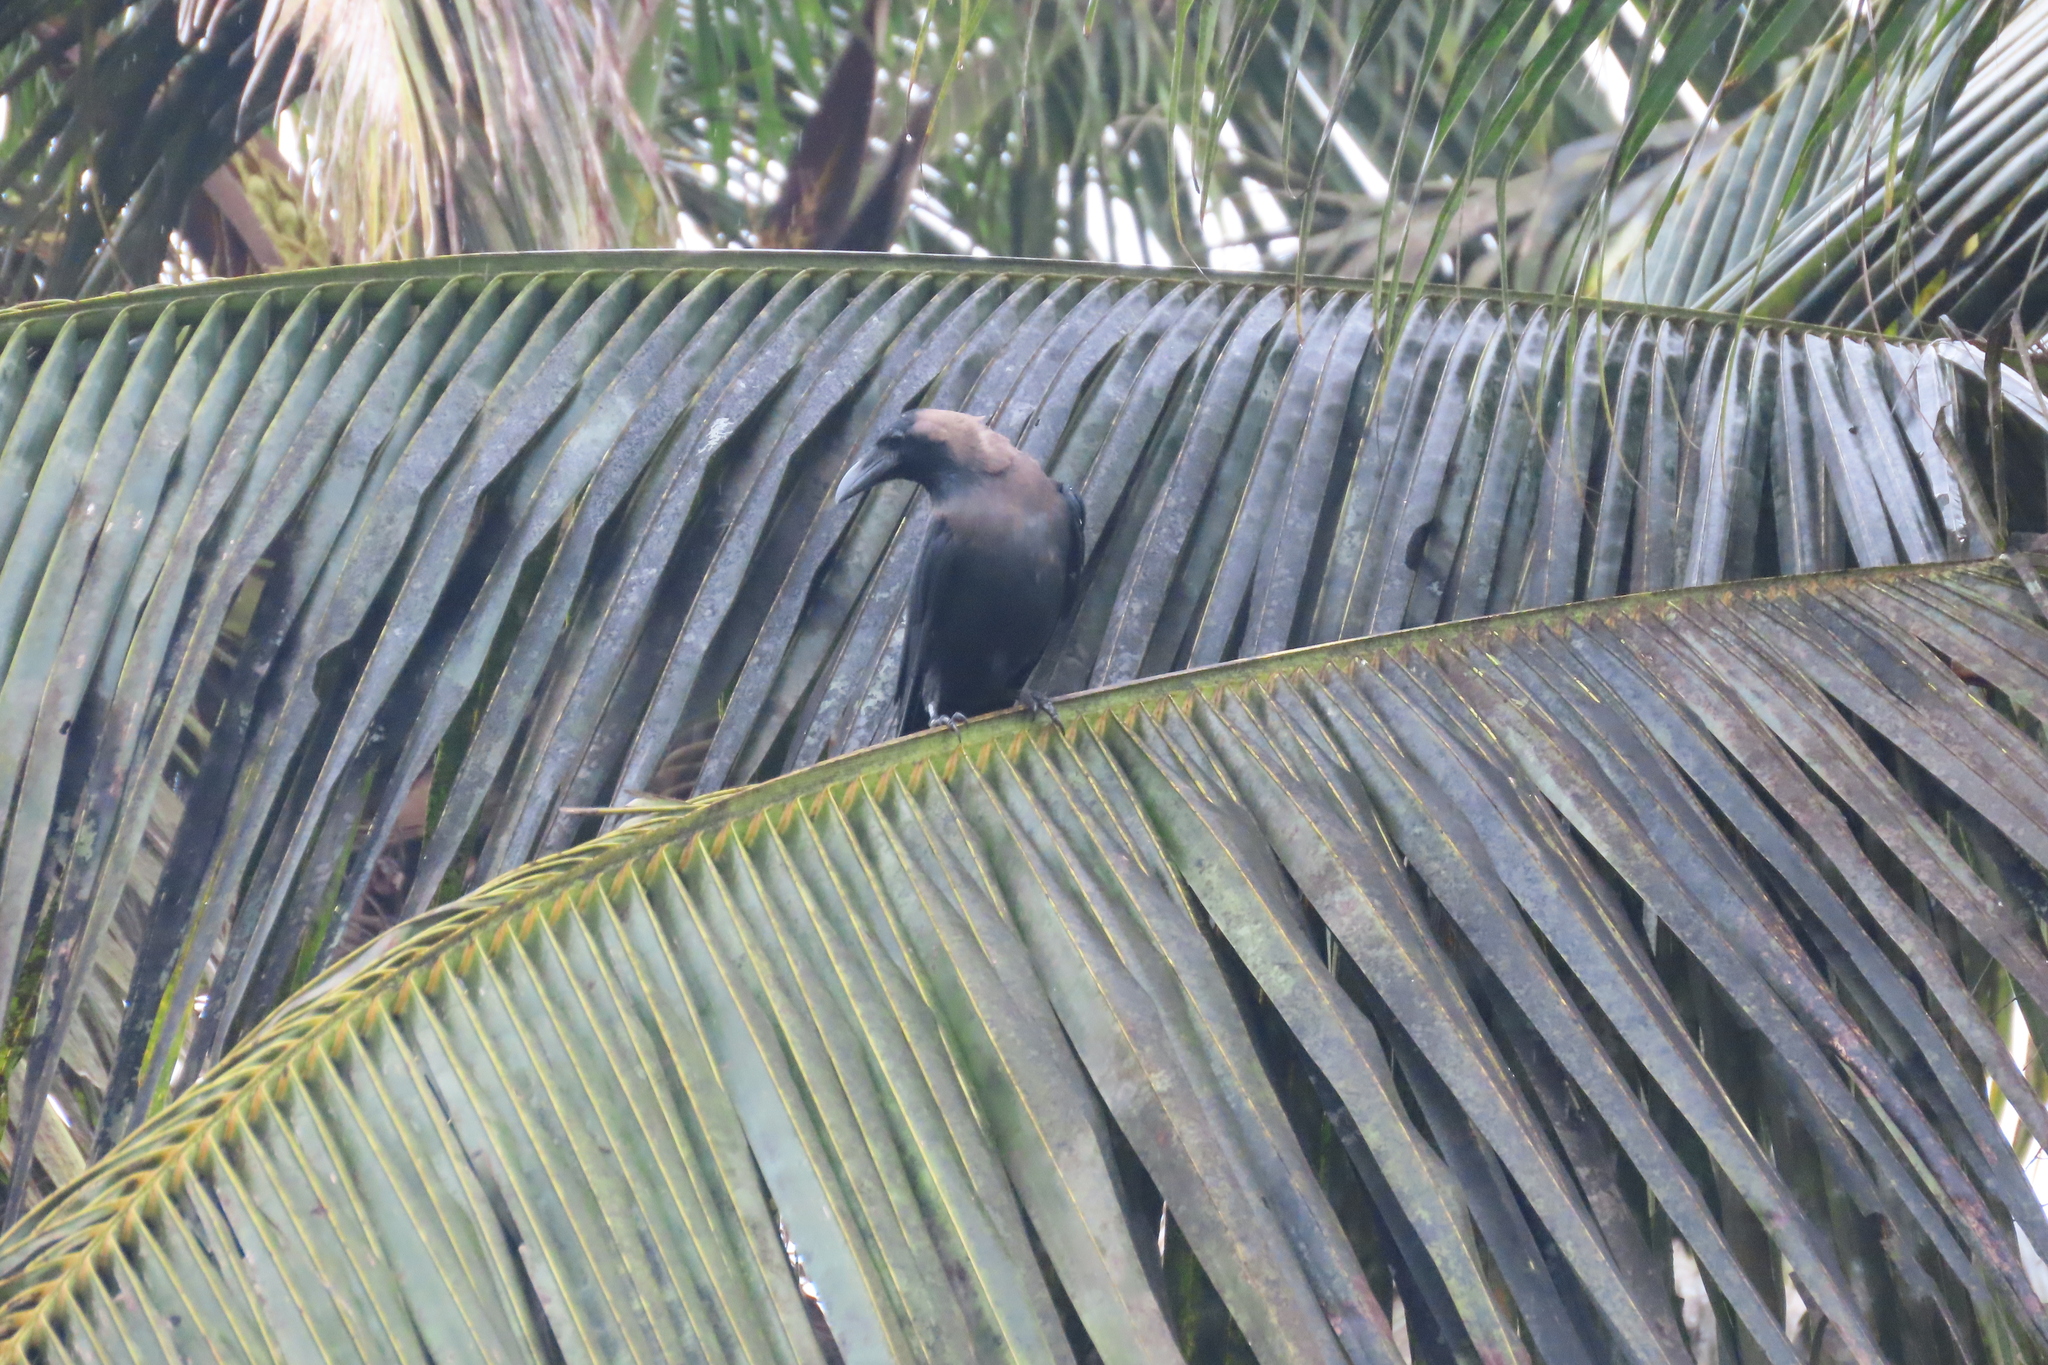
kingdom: Animalia
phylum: Chordata
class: Aves
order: Passeriformes
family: Corvidae
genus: Corvus
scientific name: Corvus splendens
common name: House crow
